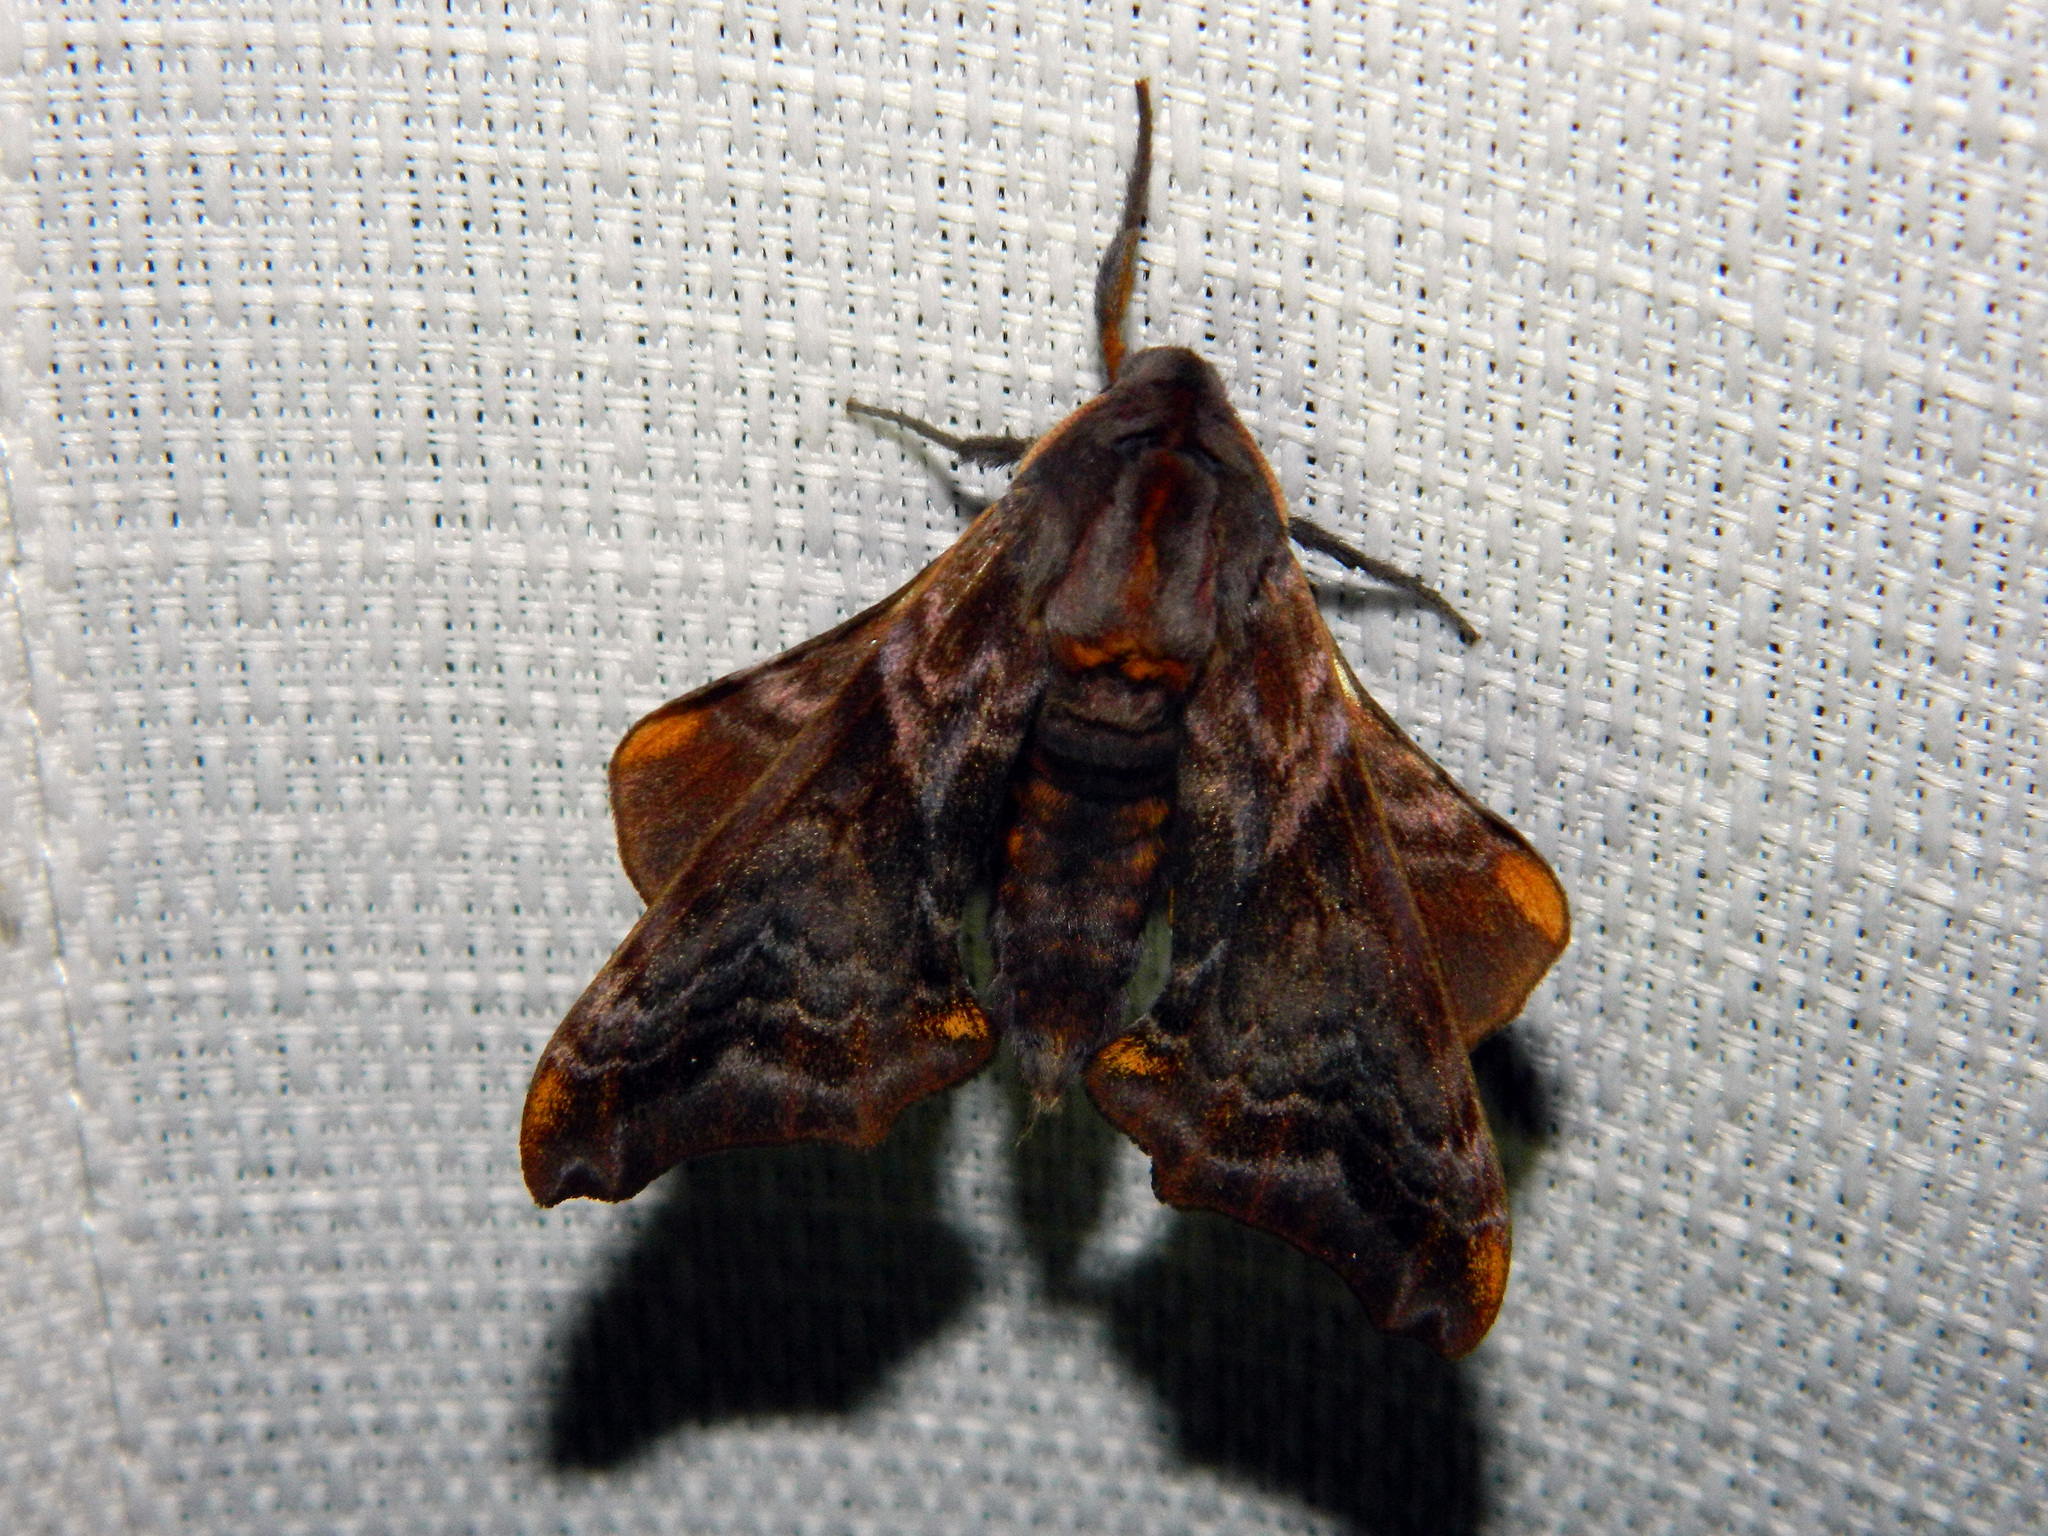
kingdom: Animalia
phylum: Arthropoda
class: Insecta
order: Lepidoptera
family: Sphingidae
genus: Paonias
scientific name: Paonias myops
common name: Small-eyed sphinx
